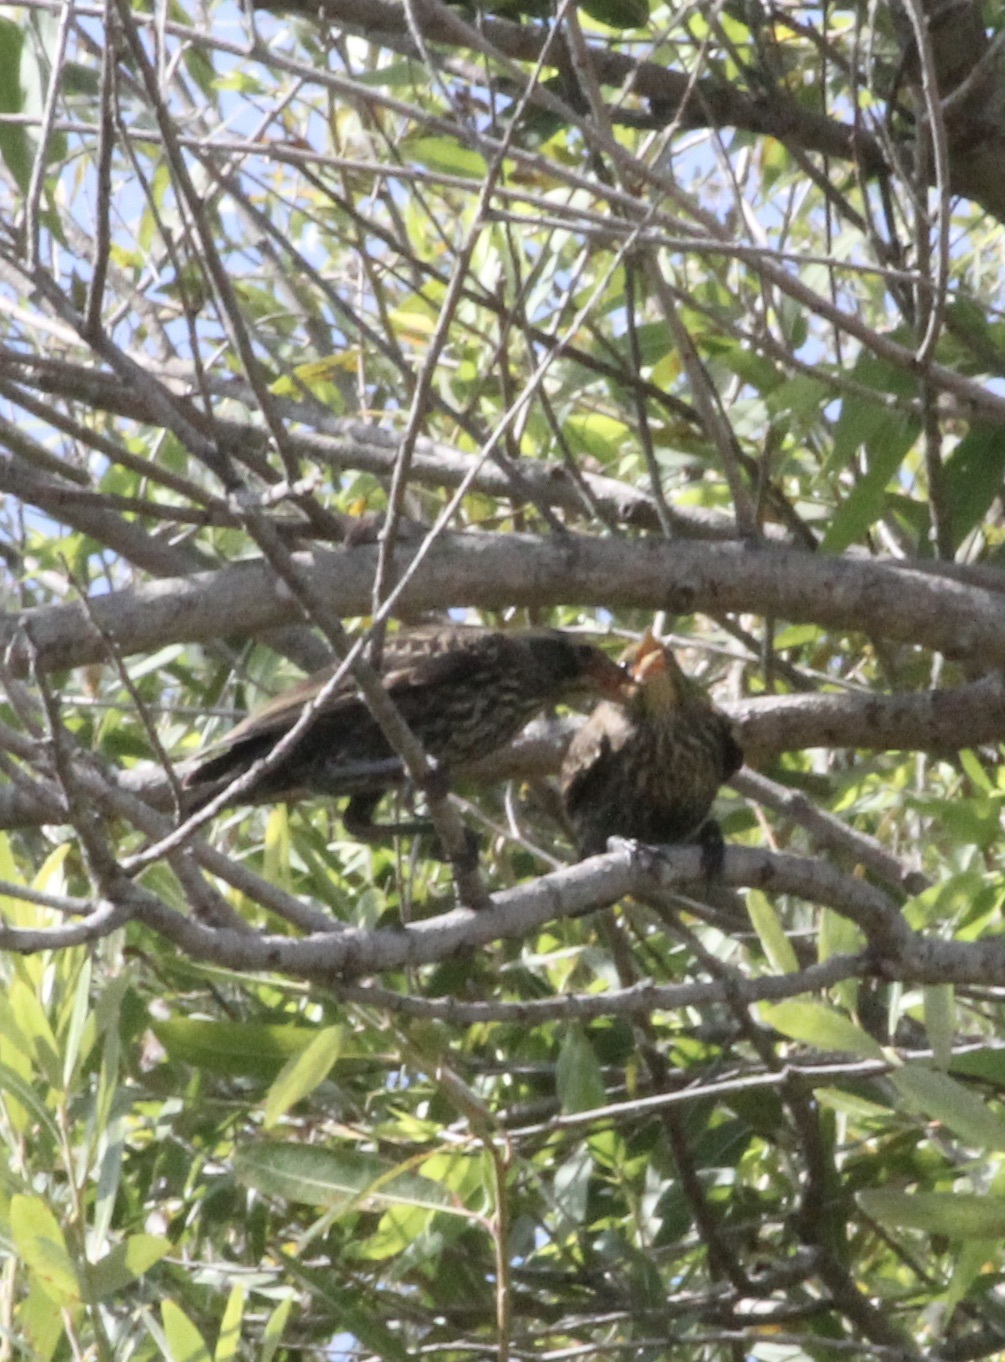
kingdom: Animalia
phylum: Chordata
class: Aves
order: Passeriformes
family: Icteridae
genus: Agelaius
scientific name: Agelaius phoeniceus
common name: Red-winged blackbird
